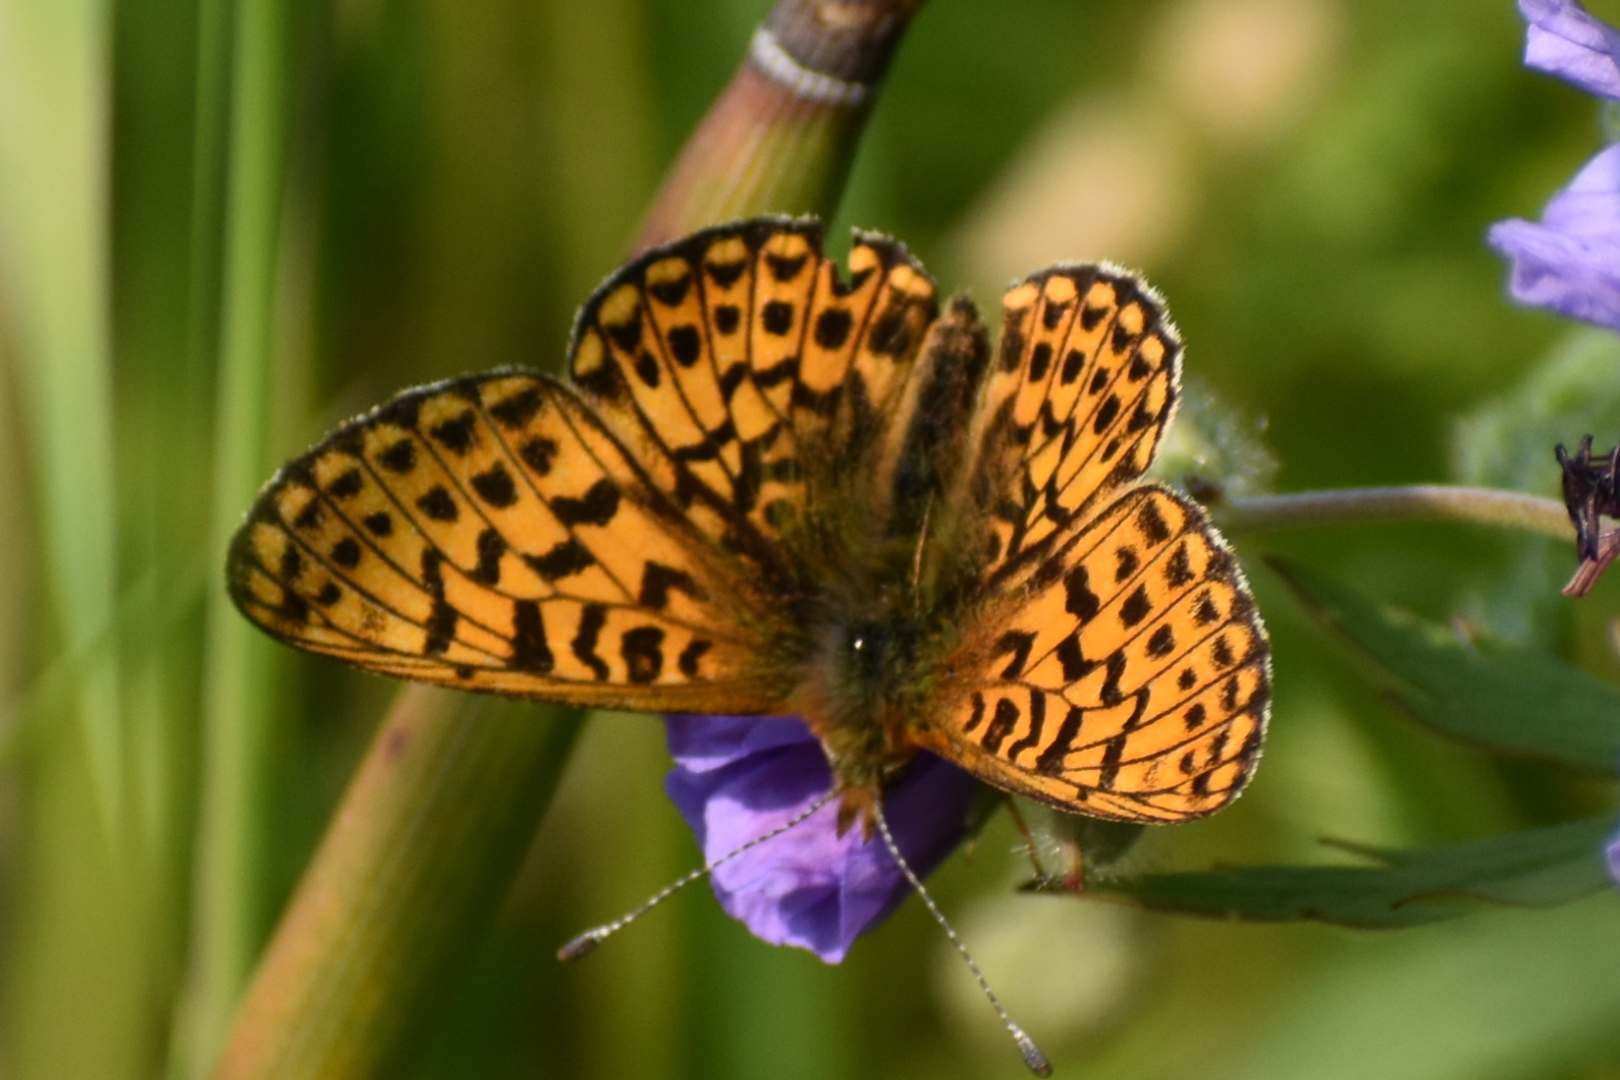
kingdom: Animalia
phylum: Arthropoda
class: Insecta
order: Lepidoptera
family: Nymphalidae
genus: Clossiana
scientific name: Clossiana euphrosyne
